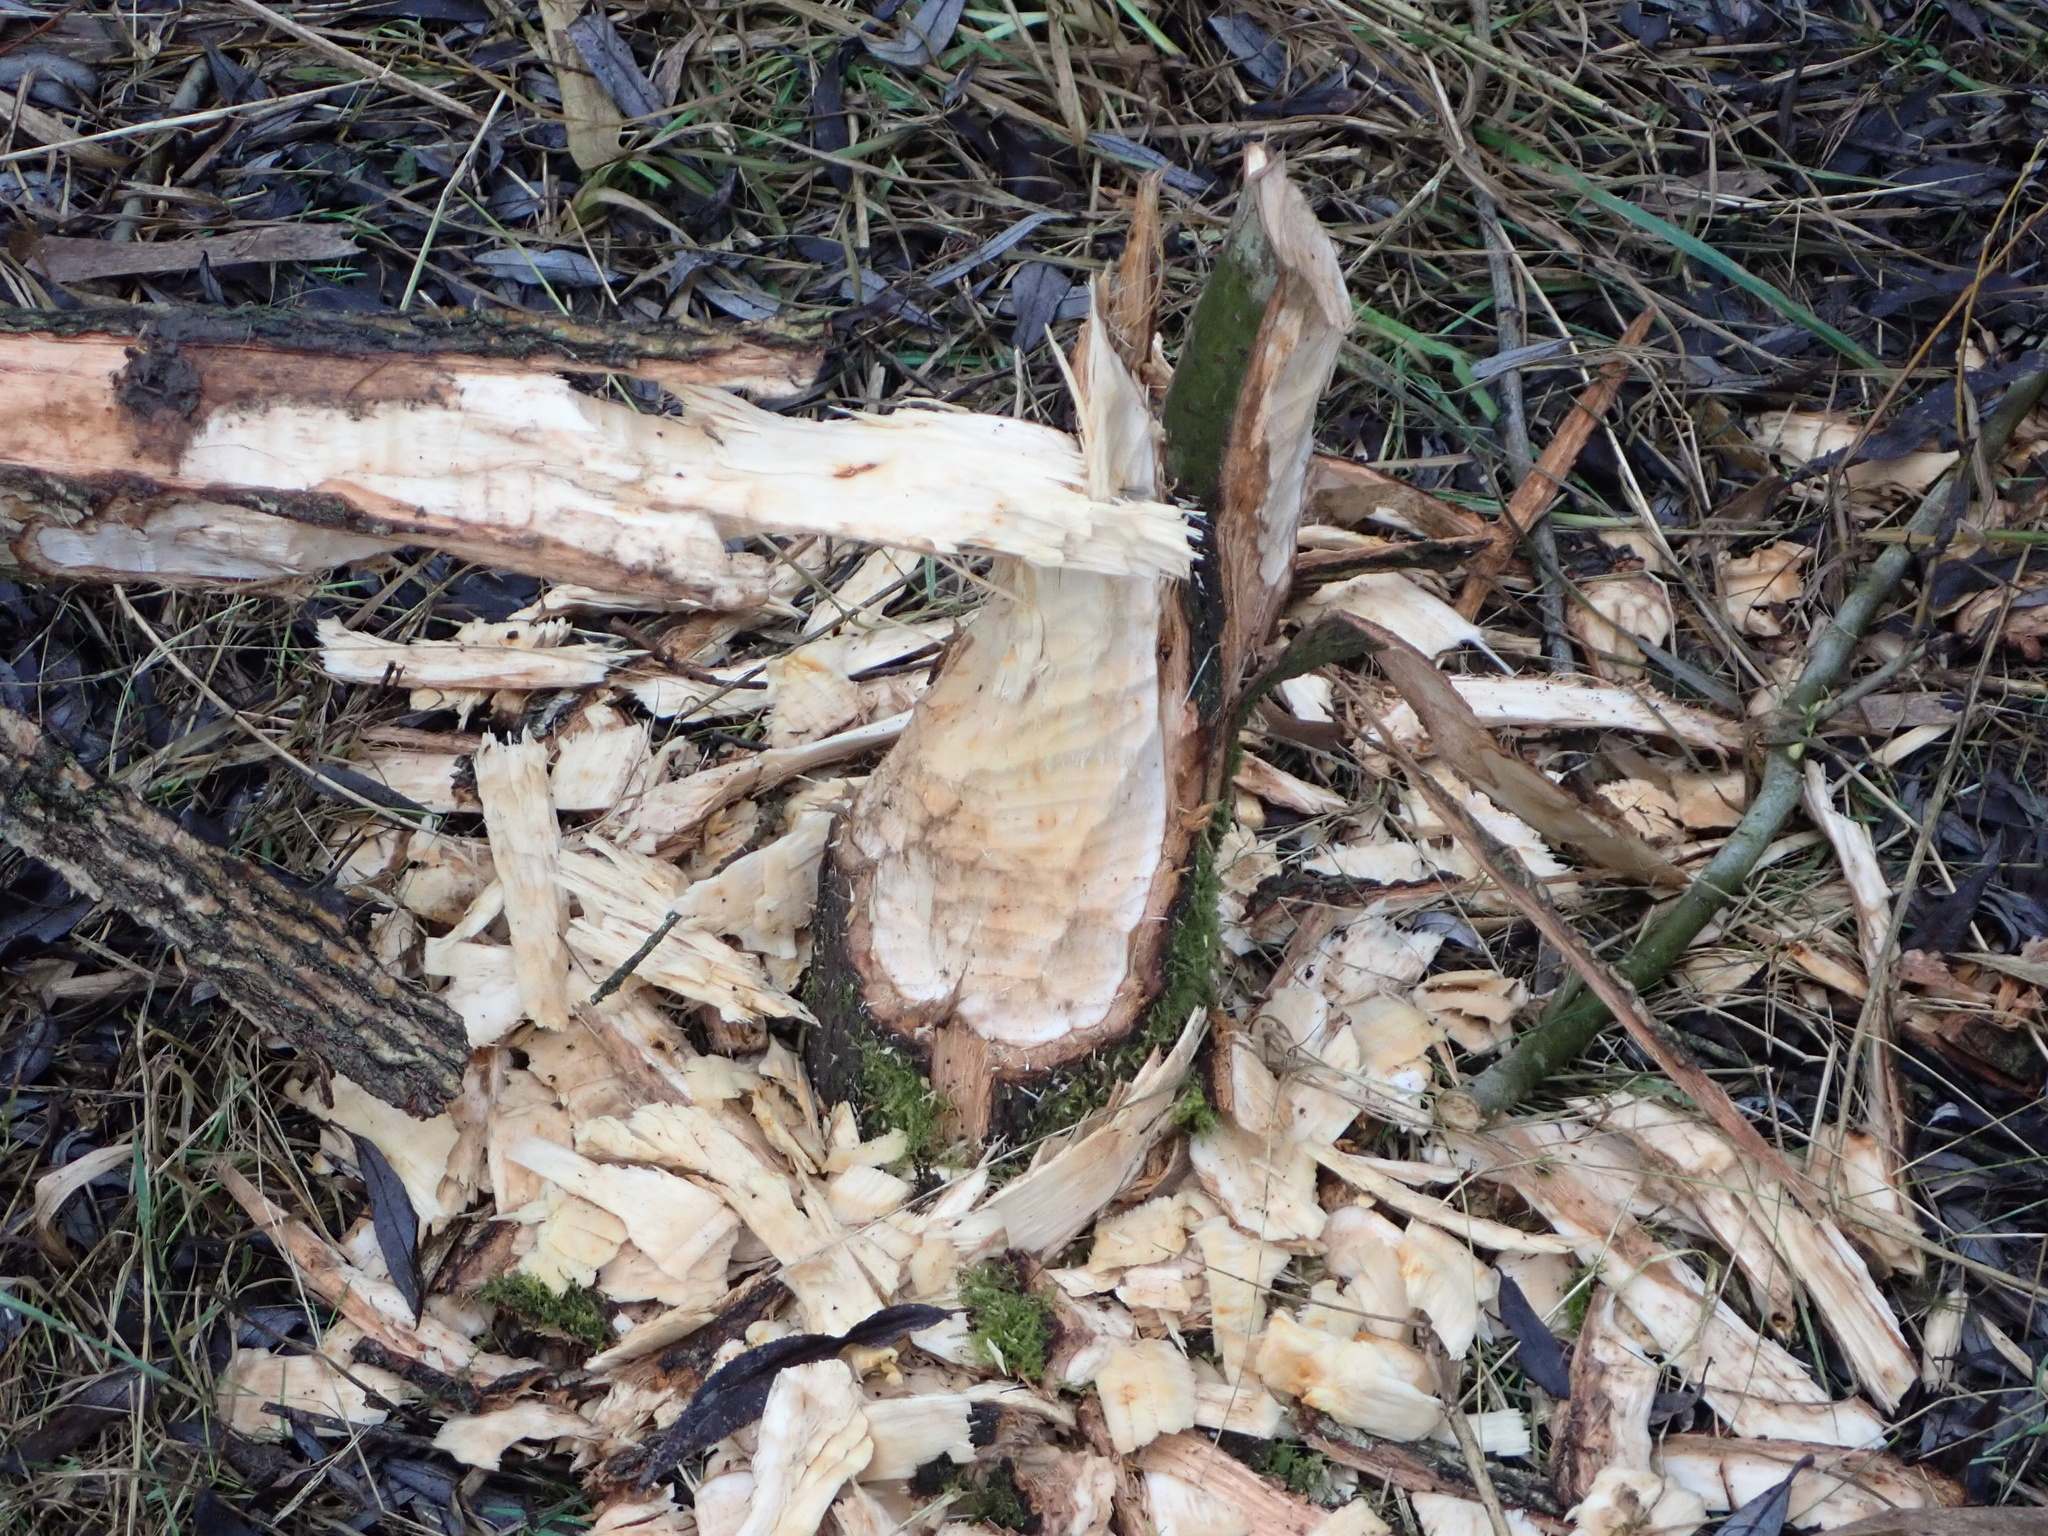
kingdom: Animalia
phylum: Chordata
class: Mammalia
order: Rodentia
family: Castoridae
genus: Castor
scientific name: Castor fiber
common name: Eurasian beaver
